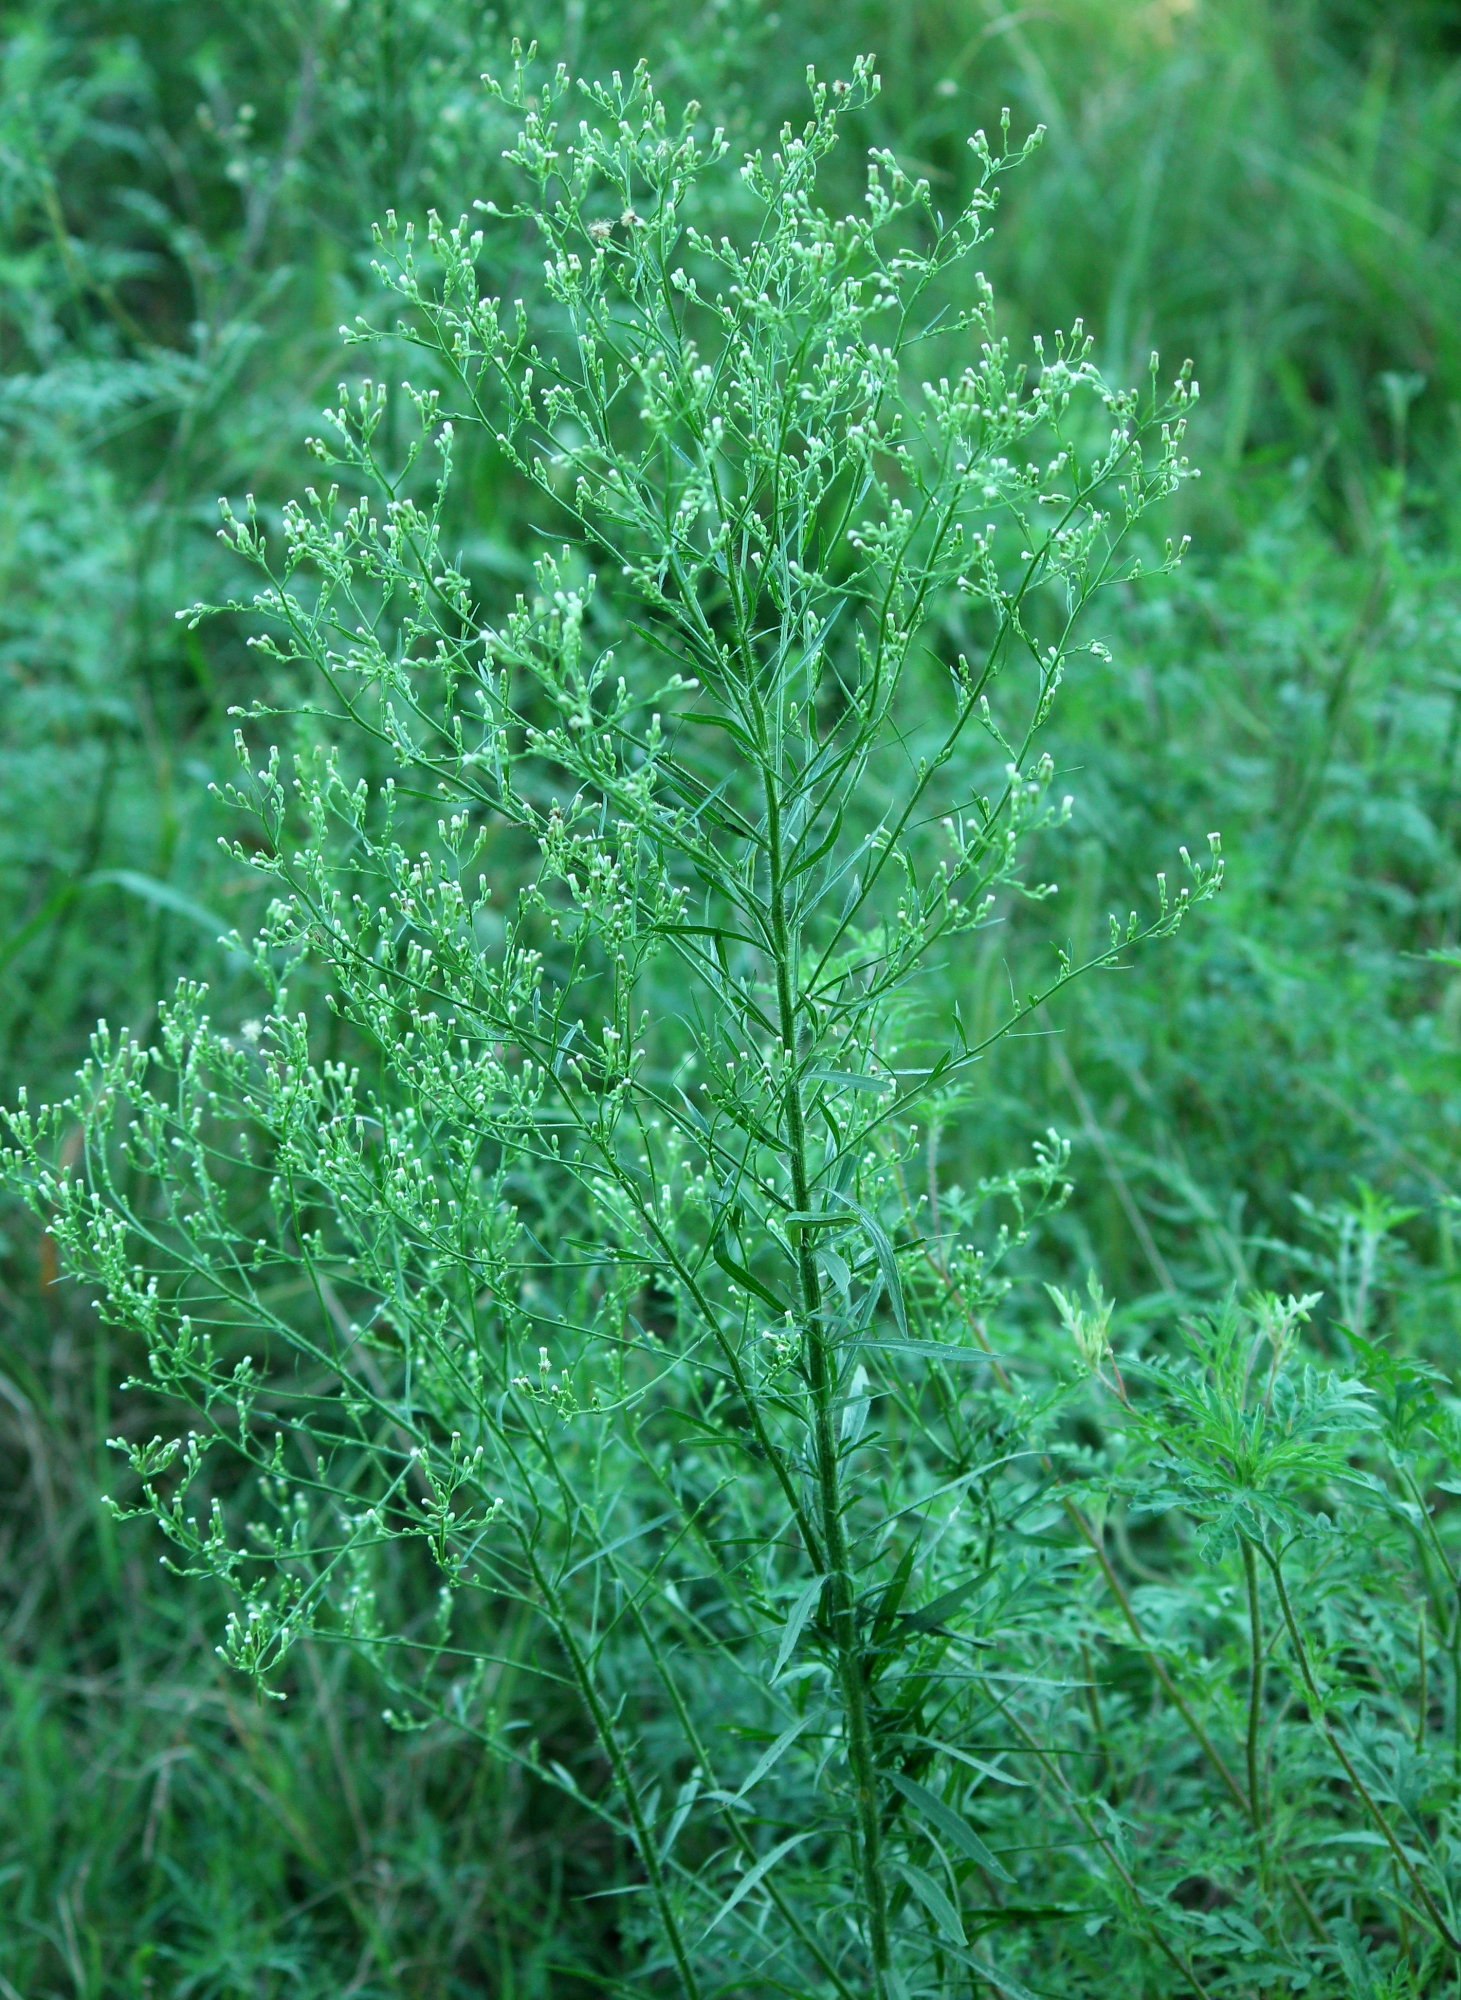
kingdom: Plantae
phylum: Tracheophyta
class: Magnoliopsida
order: Asterales
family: Asteraceae
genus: Erigeron
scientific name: Erigeron canadensis
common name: Canadian fleabane
